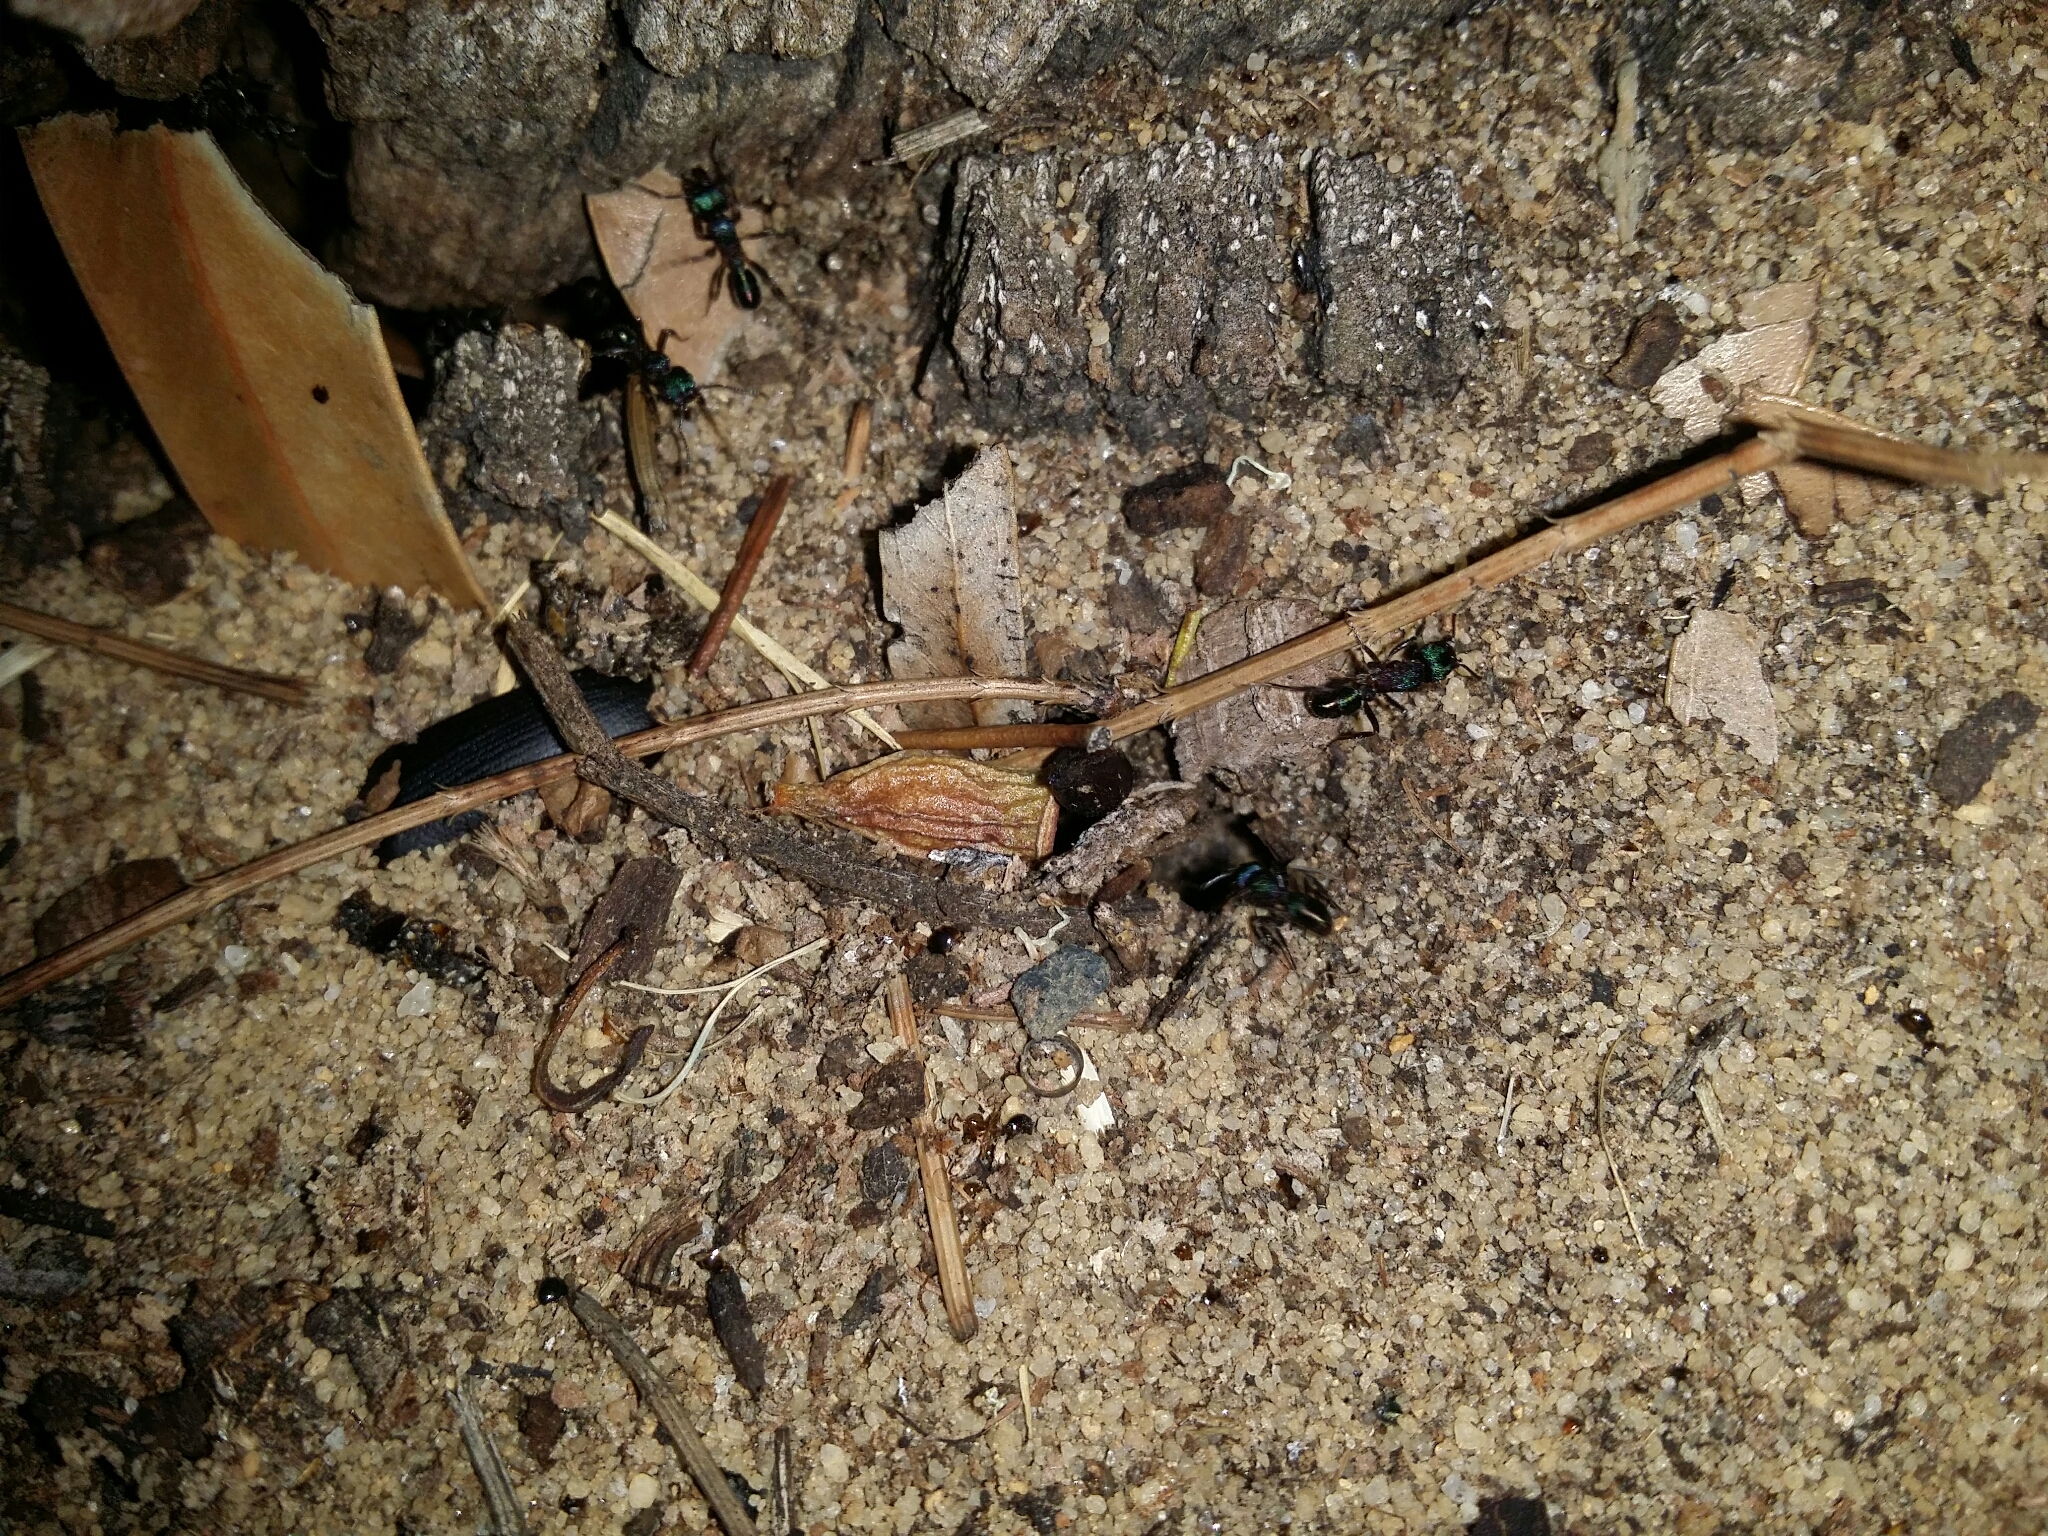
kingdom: Animalia
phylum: Arthropoda
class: Insecta
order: Hymenoptera
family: Formicidae
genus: Rhytidoponera
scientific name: Rhytidoponera metallica
